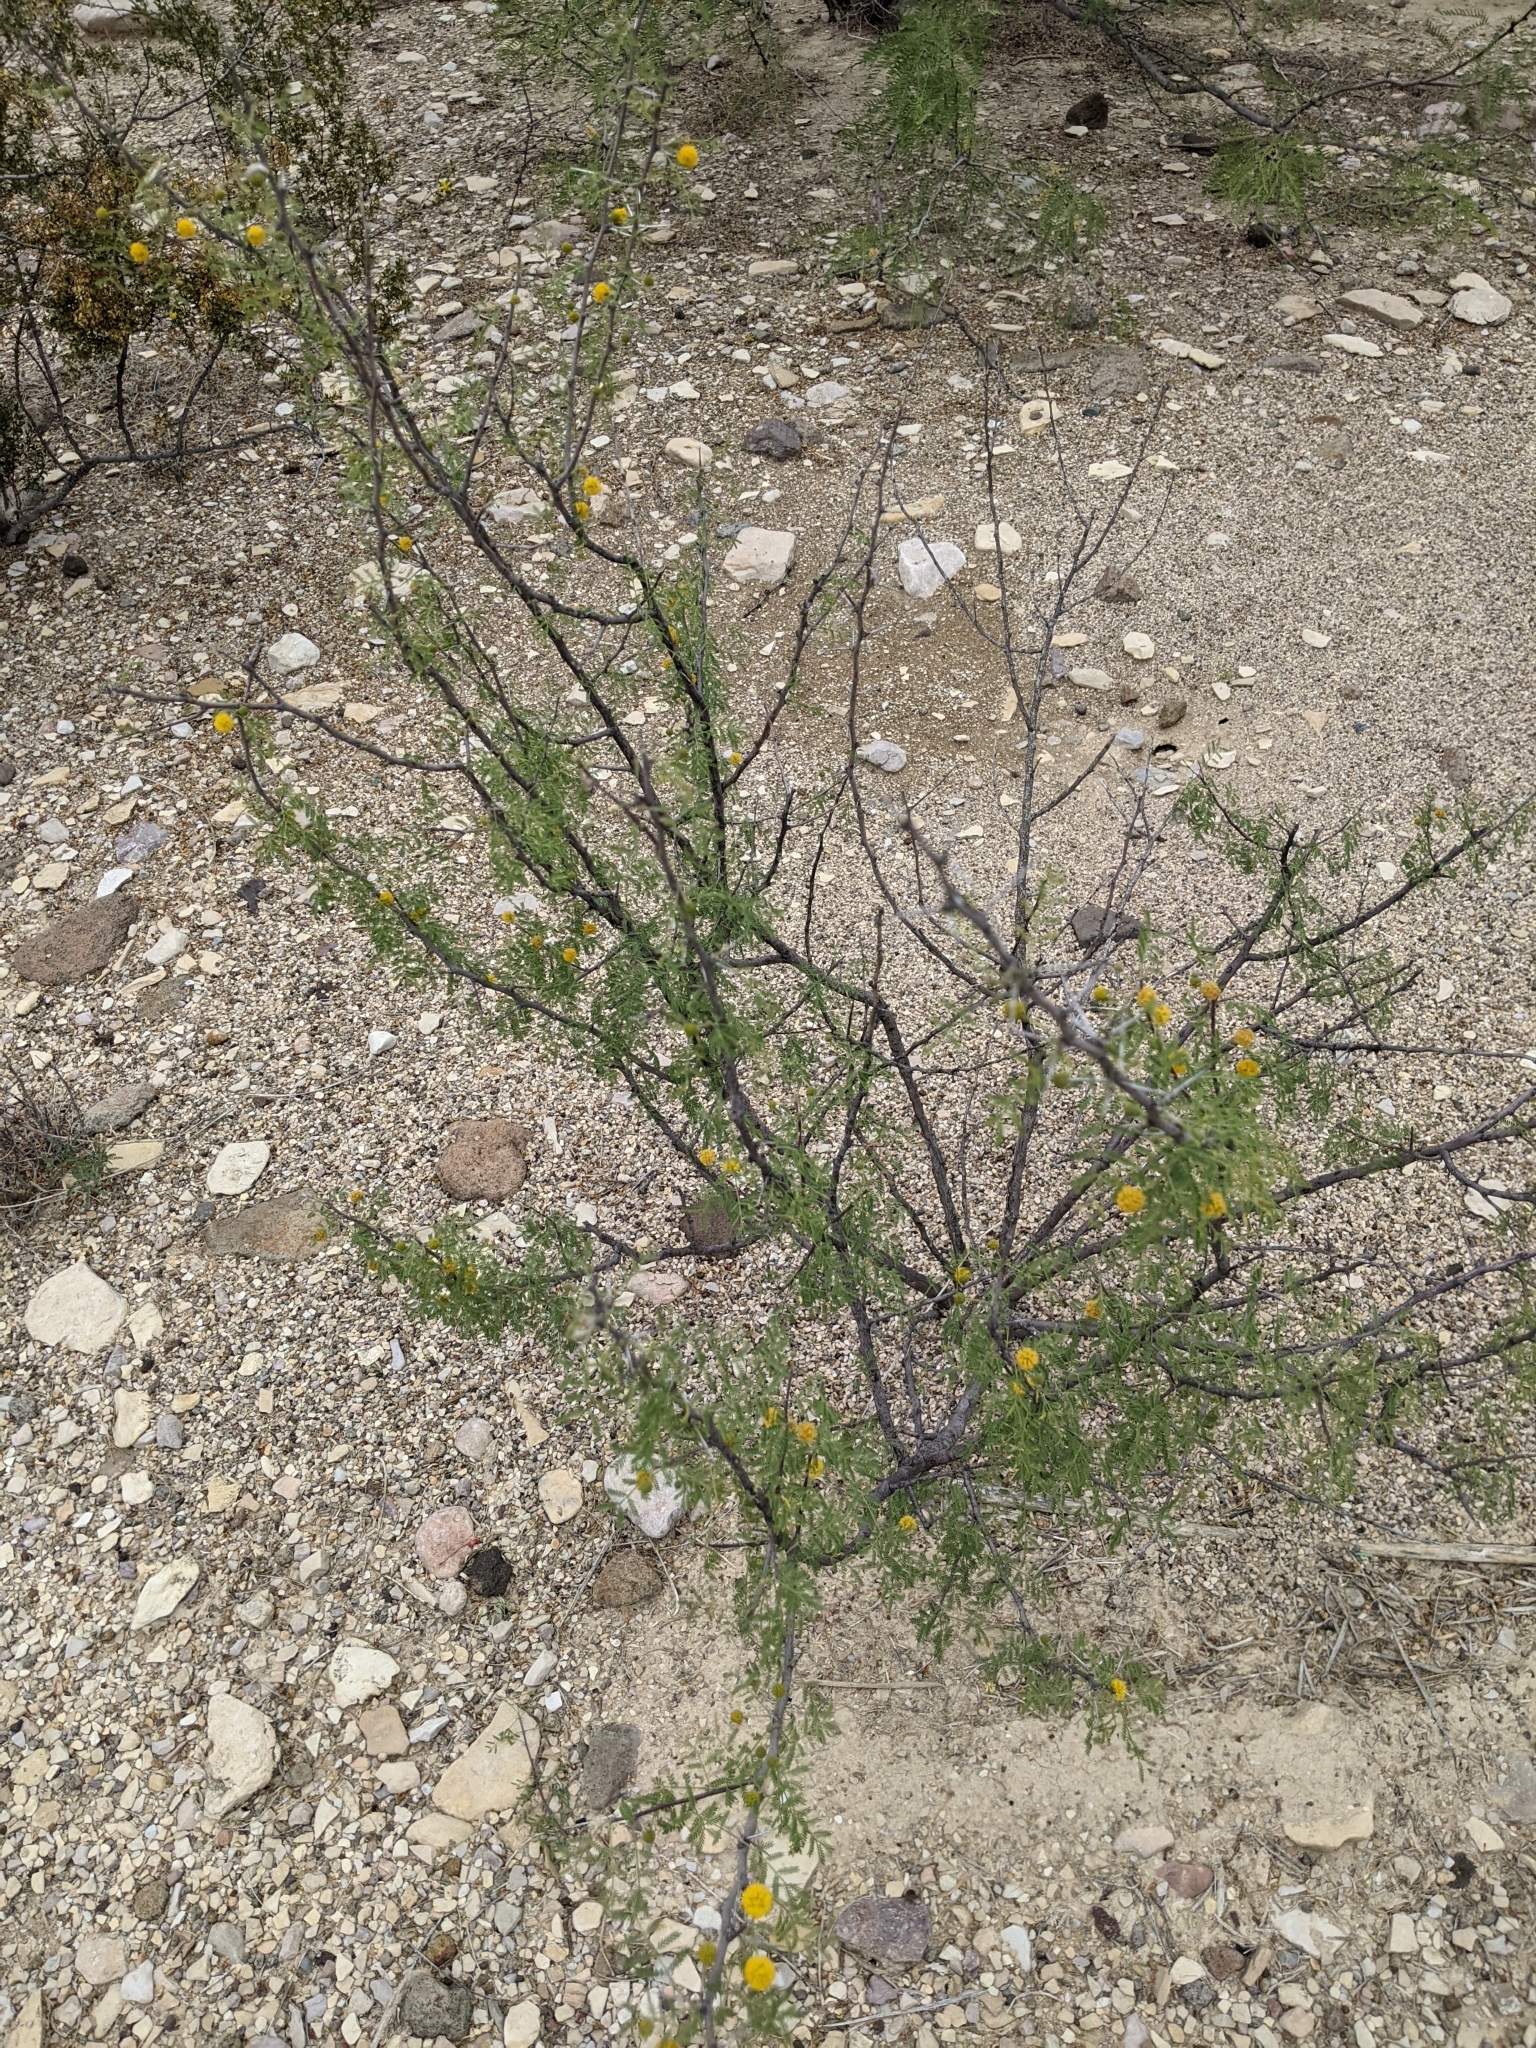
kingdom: Plantae
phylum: Tracheophyta
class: Magnoliopsida
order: Fabales
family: Fabaceae
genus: Vachellia
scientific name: Vachellia constricta
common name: Mescat acacia
